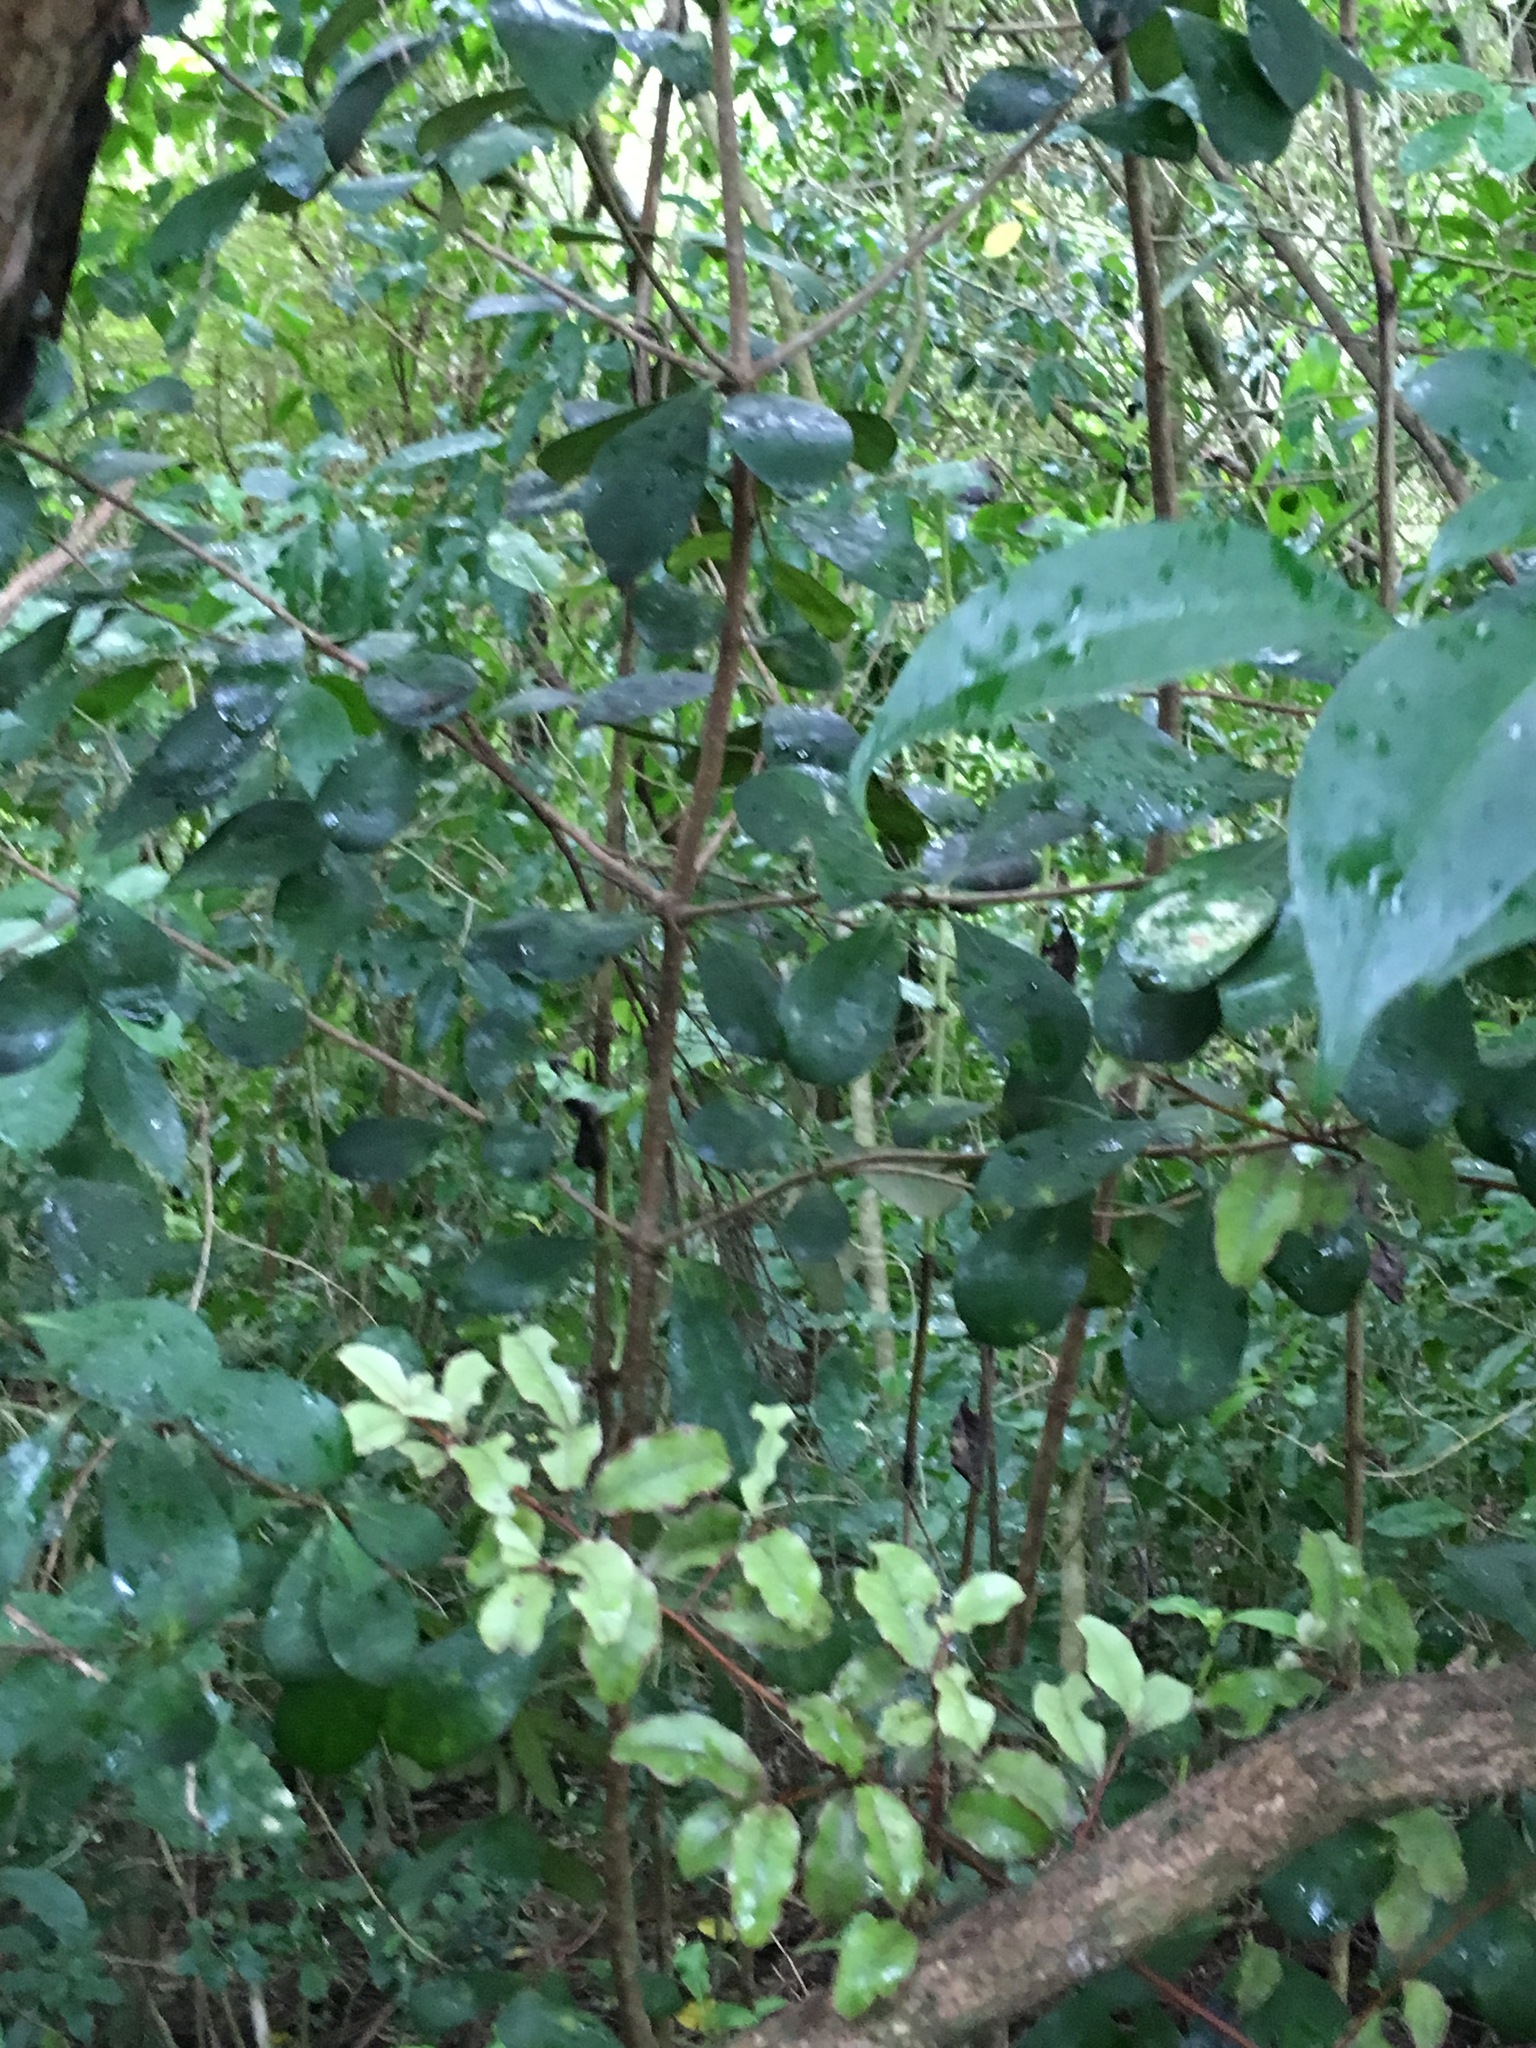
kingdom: Plantae
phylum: Tracheophyta
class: Magnoliopsida
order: Lamiales
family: Oleaceae
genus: Ligustrum
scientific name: Ligustrum lucidum
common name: Glossy privet
